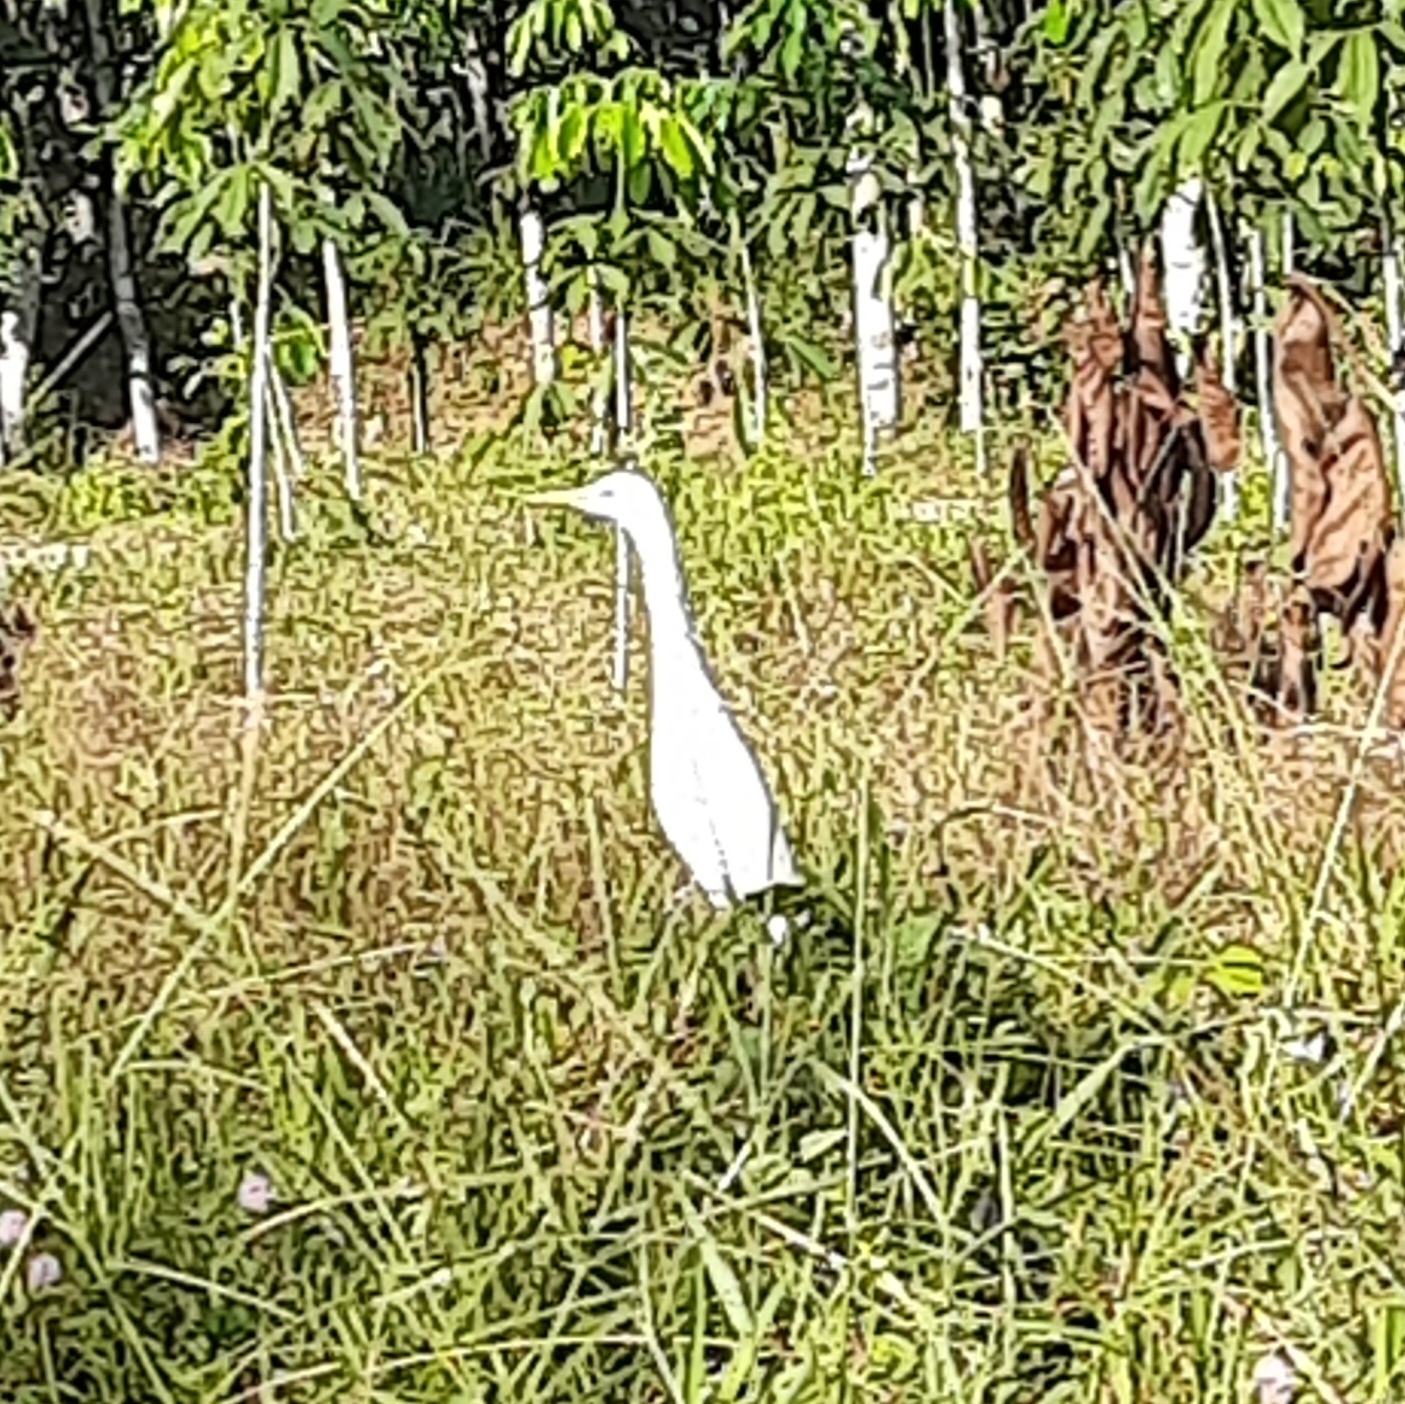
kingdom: Animalia
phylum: Chordata
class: Aves
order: Pelecaniformes
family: Ardeidae
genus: Bubulcus
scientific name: Bubulcus coromandus
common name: Eastern cattle egret
